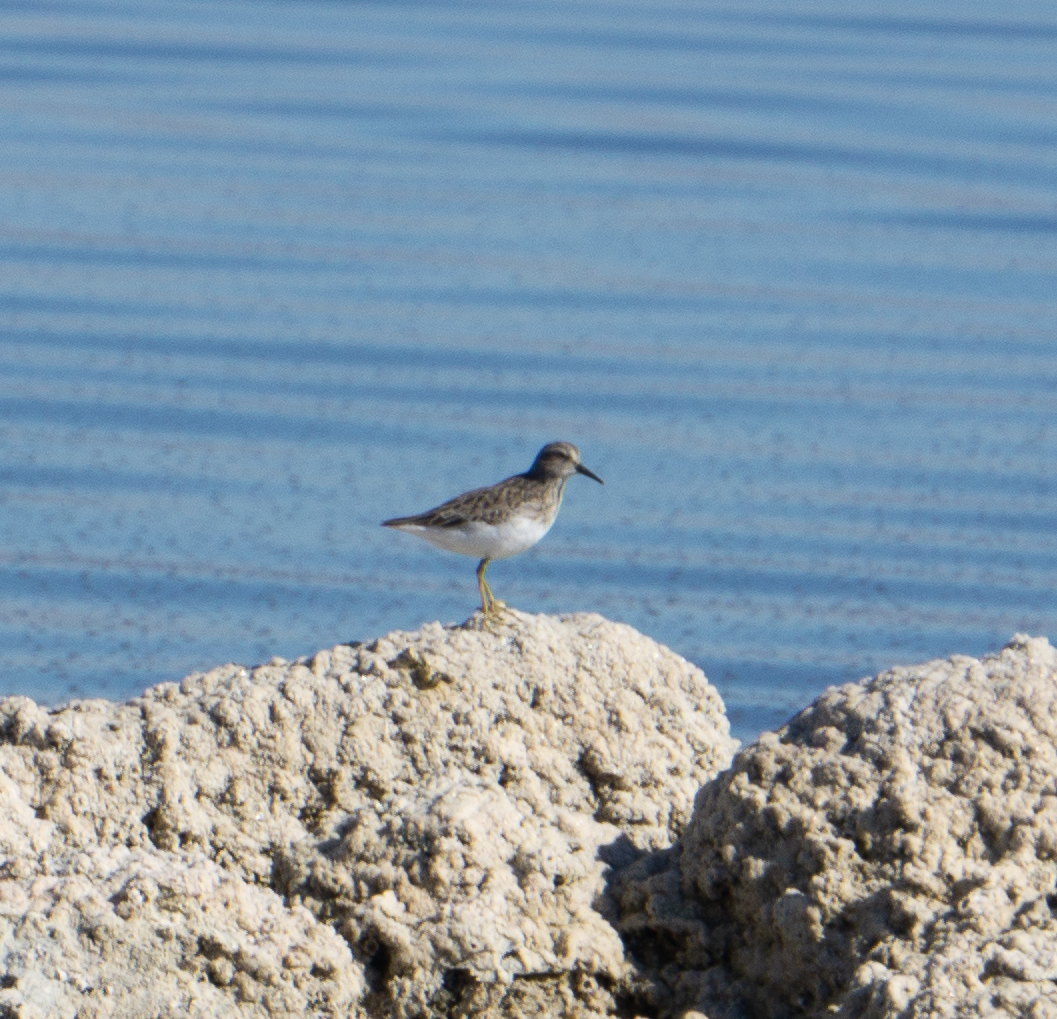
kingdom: Animalia
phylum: Chordata
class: Aves
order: Charadriiformes
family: Scolopacidae
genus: Calidris
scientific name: Calidris minutilla
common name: Least sandpiper
